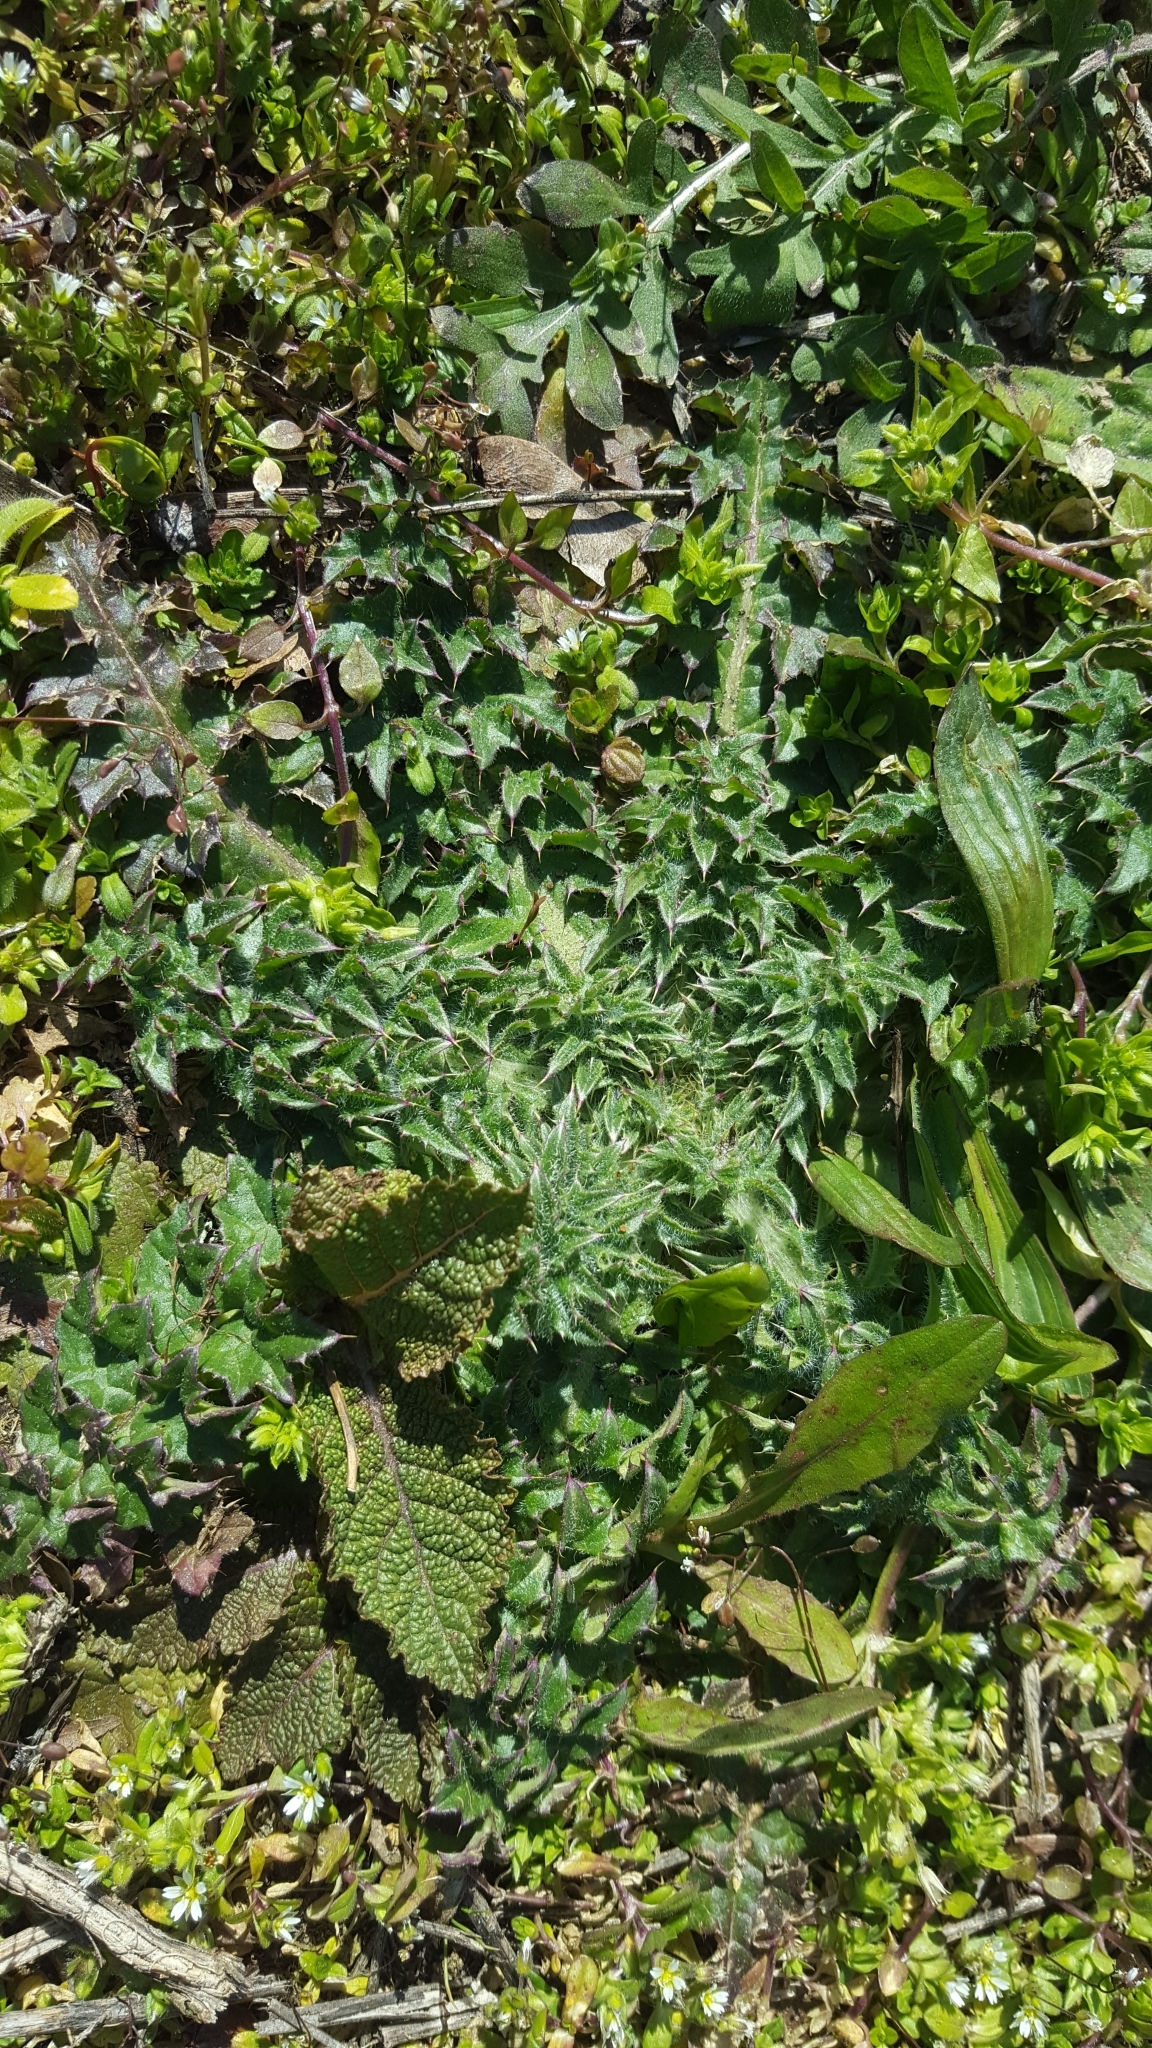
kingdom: Plantae
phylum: Tracheophyta
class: Magnoliopsida
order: Lamiales
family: Plantaginaceae
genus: Plantago
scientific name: Plantago lanceolata
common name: Ribwort plantain
